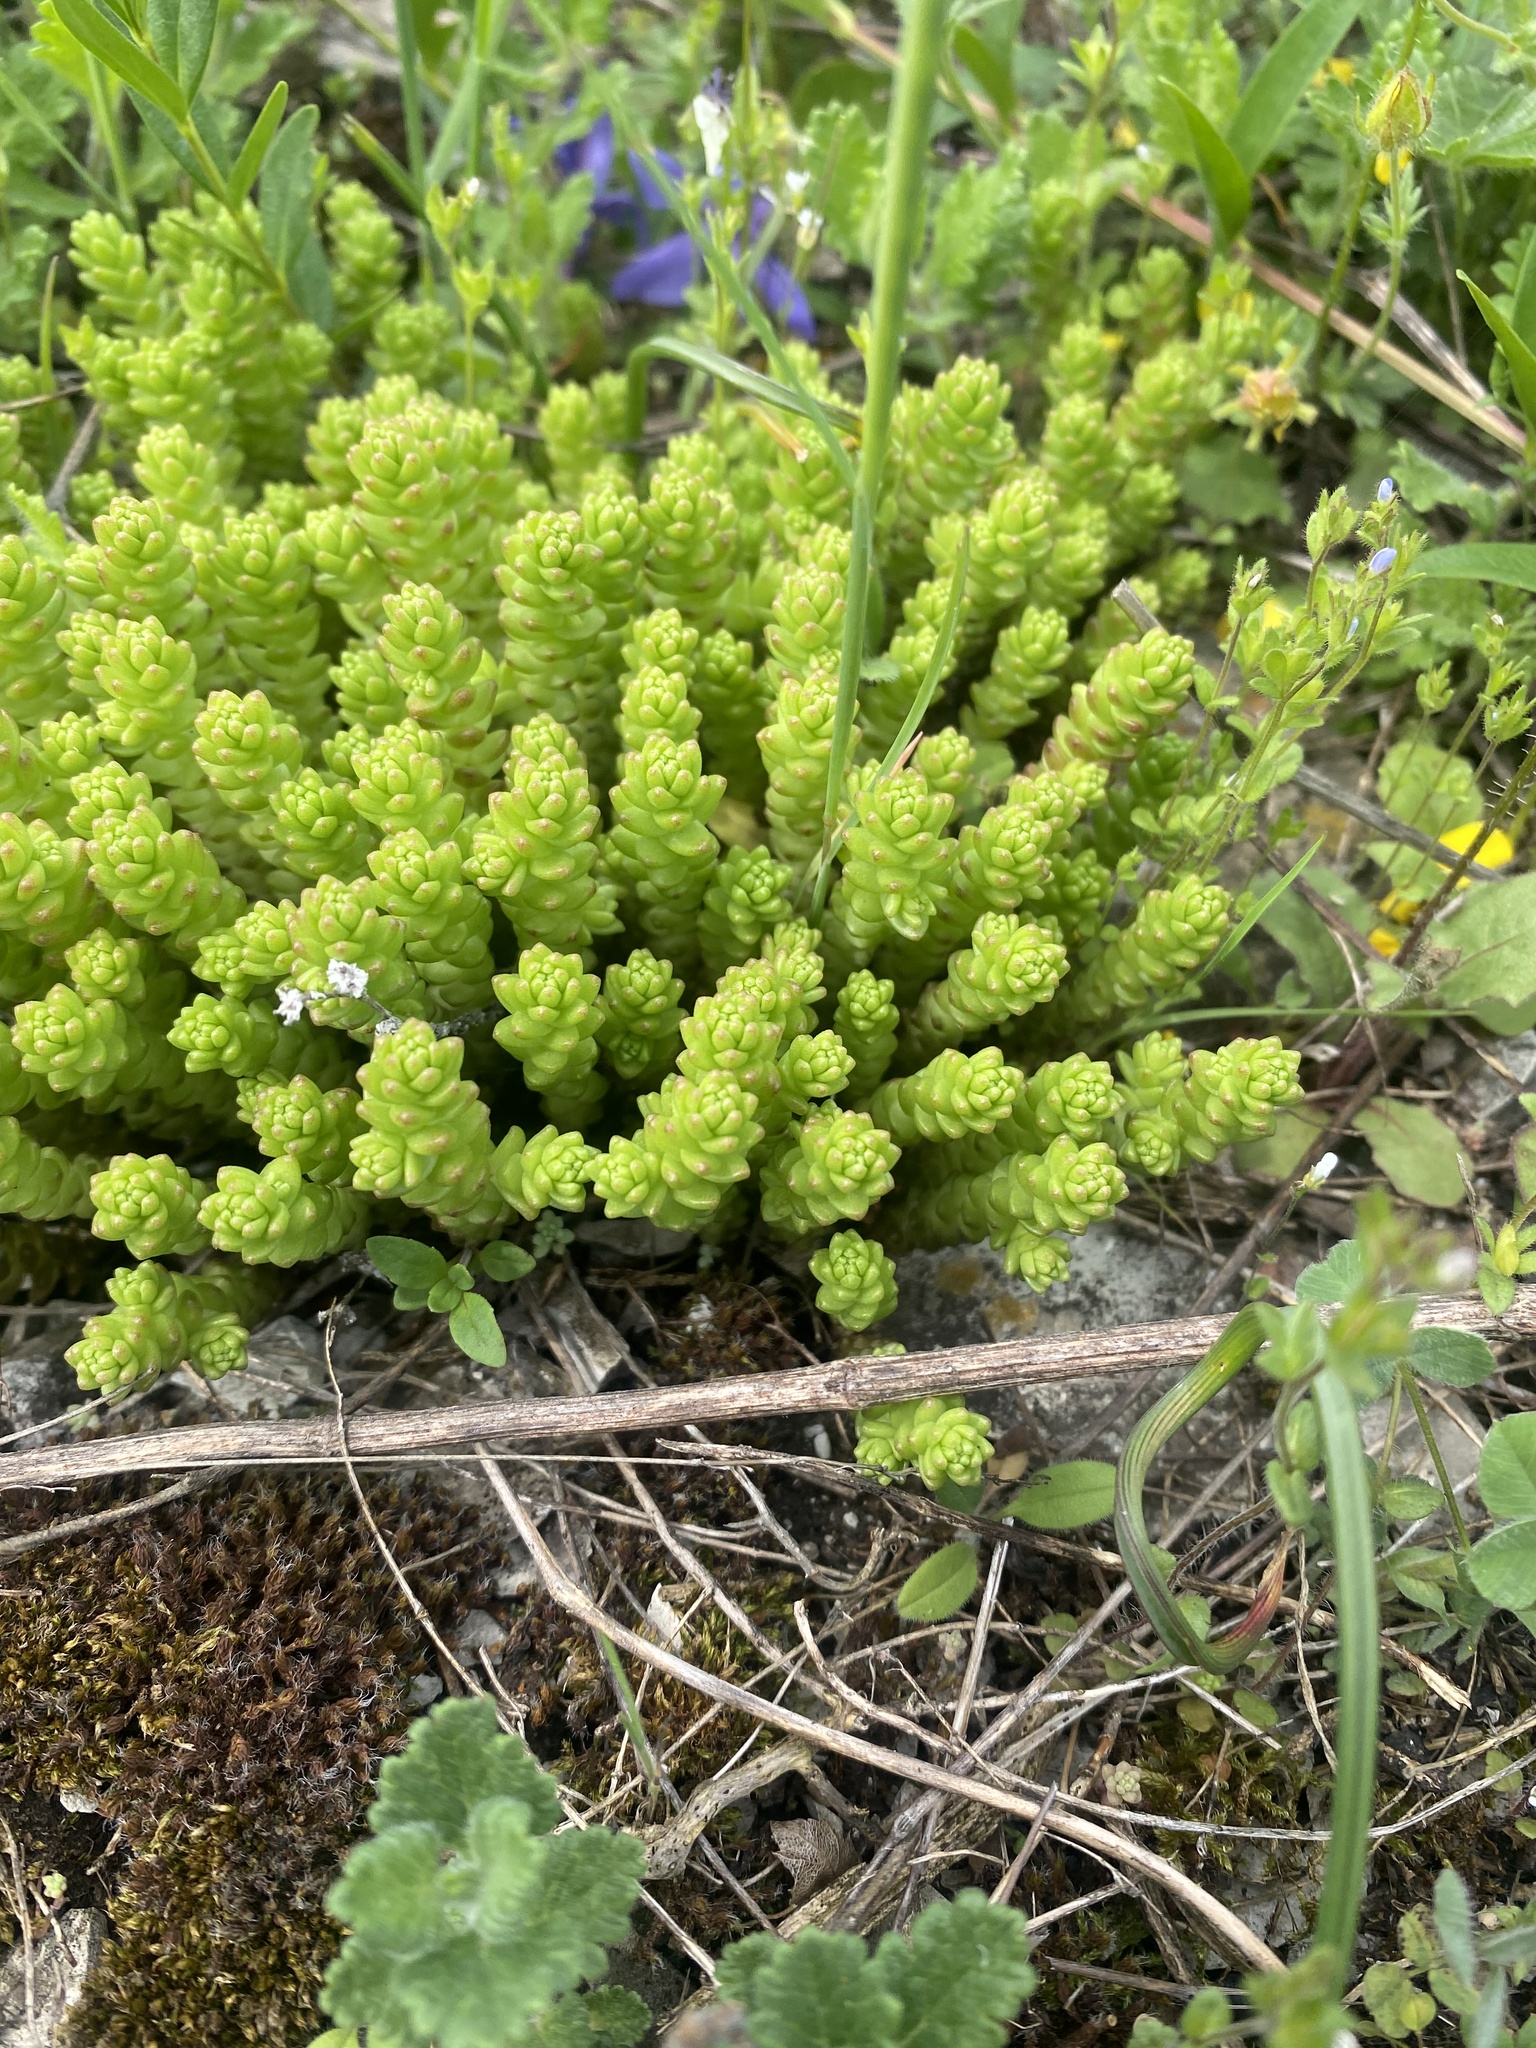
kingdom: Plantae
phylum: Tracheophyta
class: Magnoliopsida
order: Saxifragales
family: Crassulaceae
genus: Sedum
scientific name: Sedum acre
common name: Biting stonecrop
